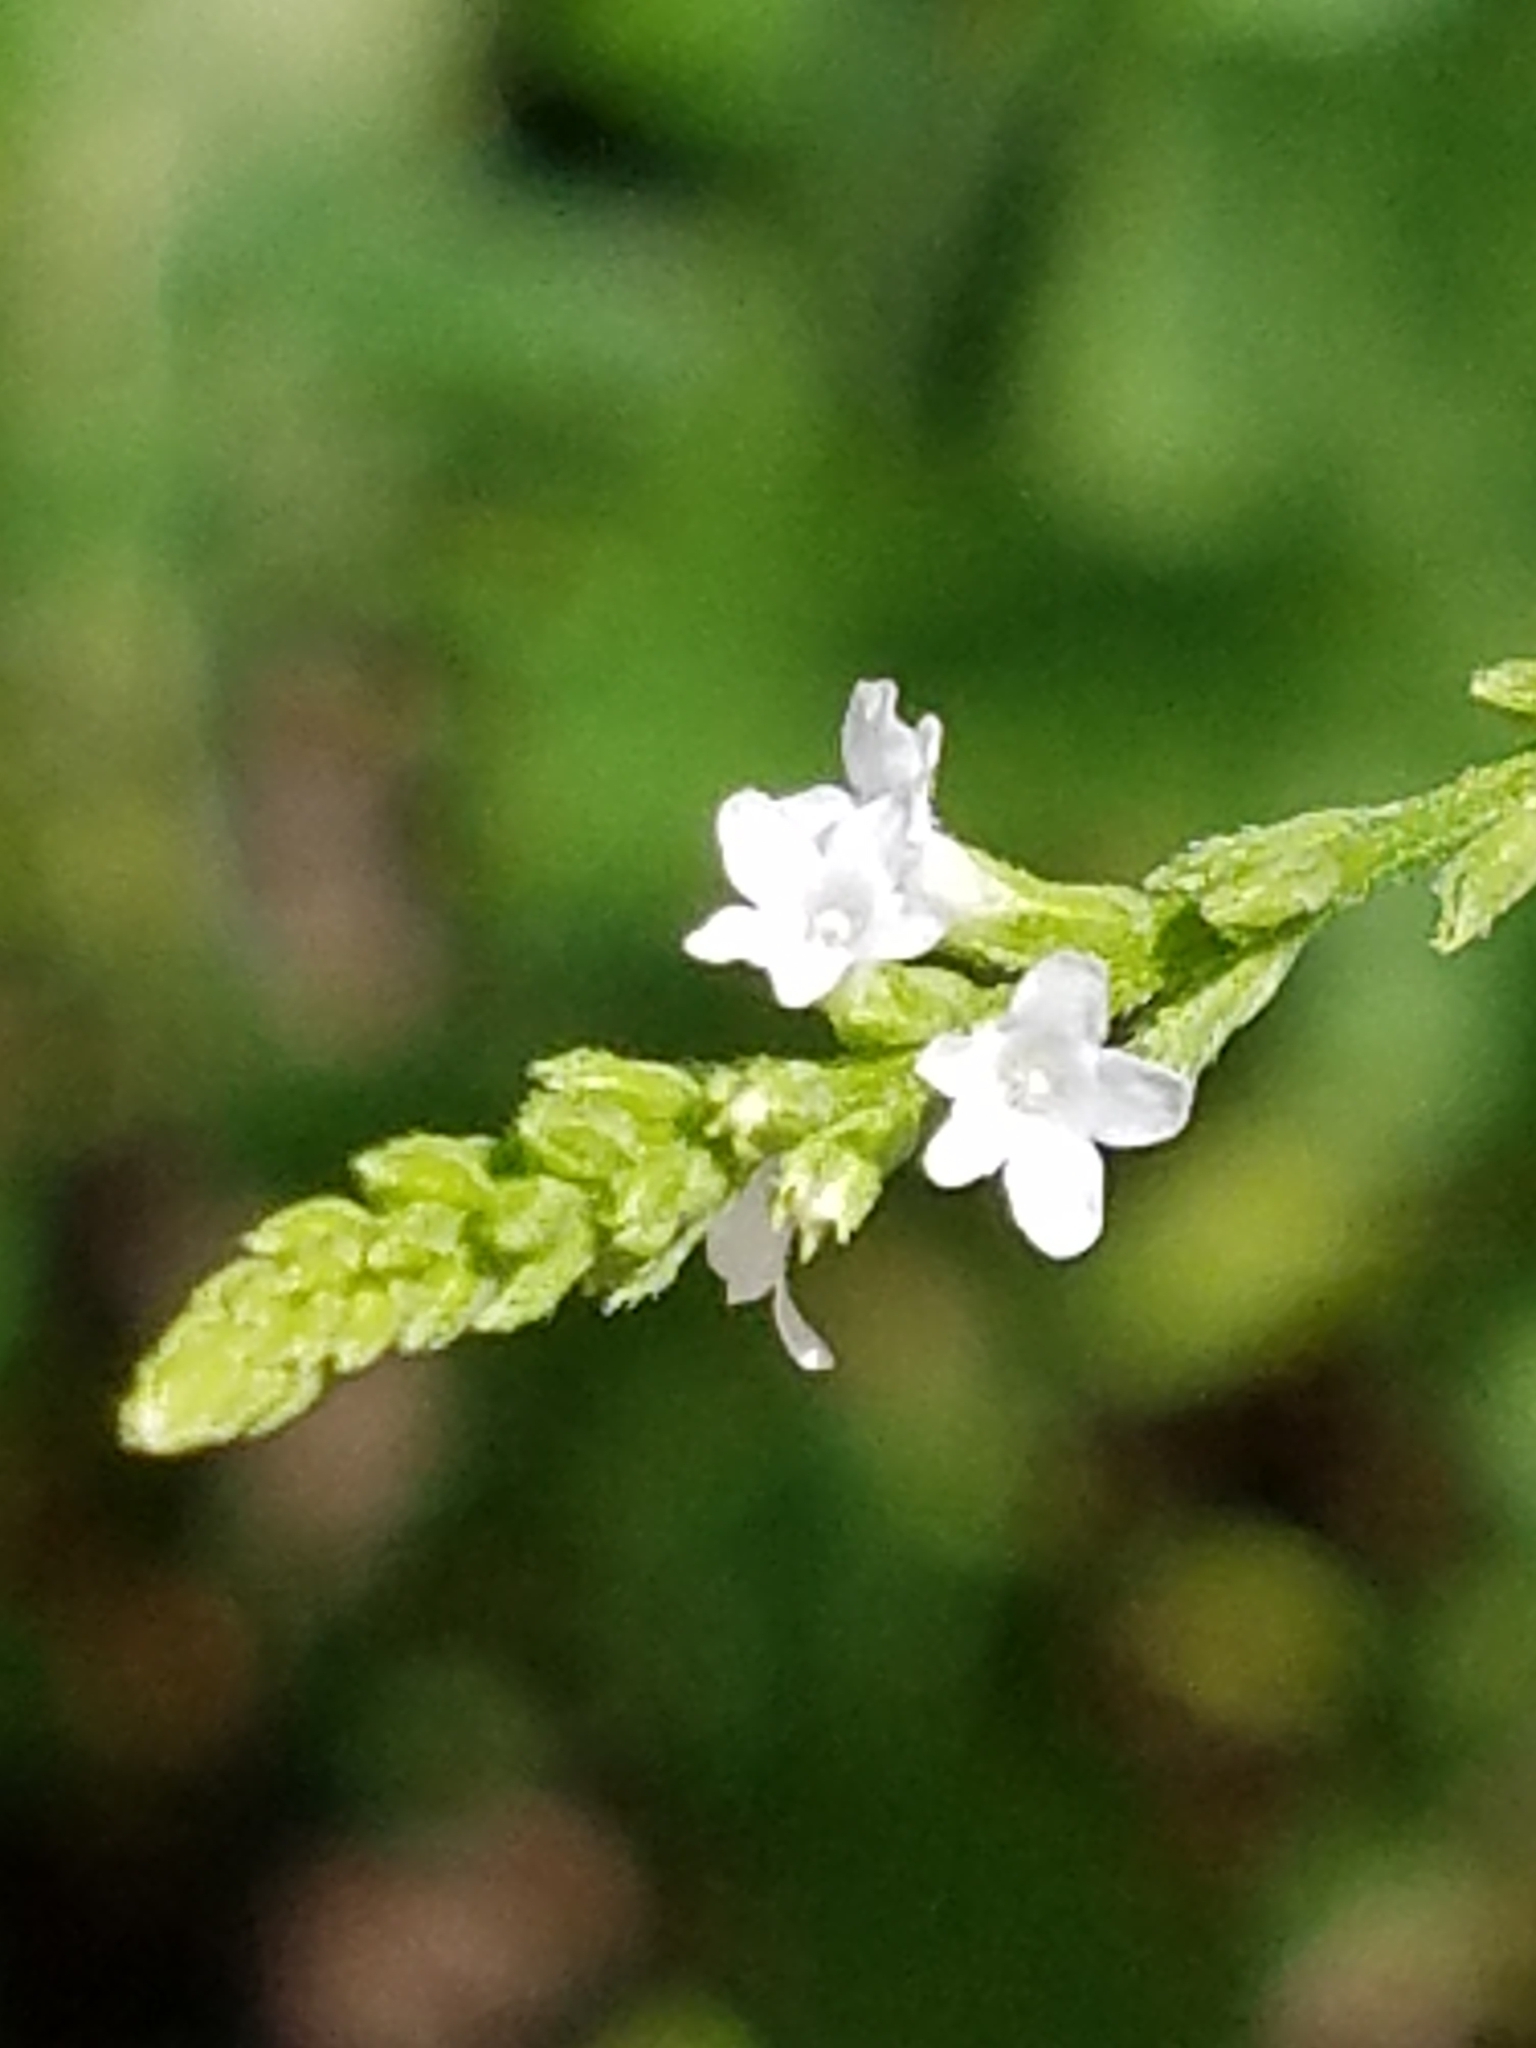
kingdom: Plantae
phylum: Tracheophyta
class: Magnoliopsida
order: Lamiales
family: Verbenaceae
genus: Verbena
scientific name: Verbena urticifolia
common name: Nettle-leaved vervain
